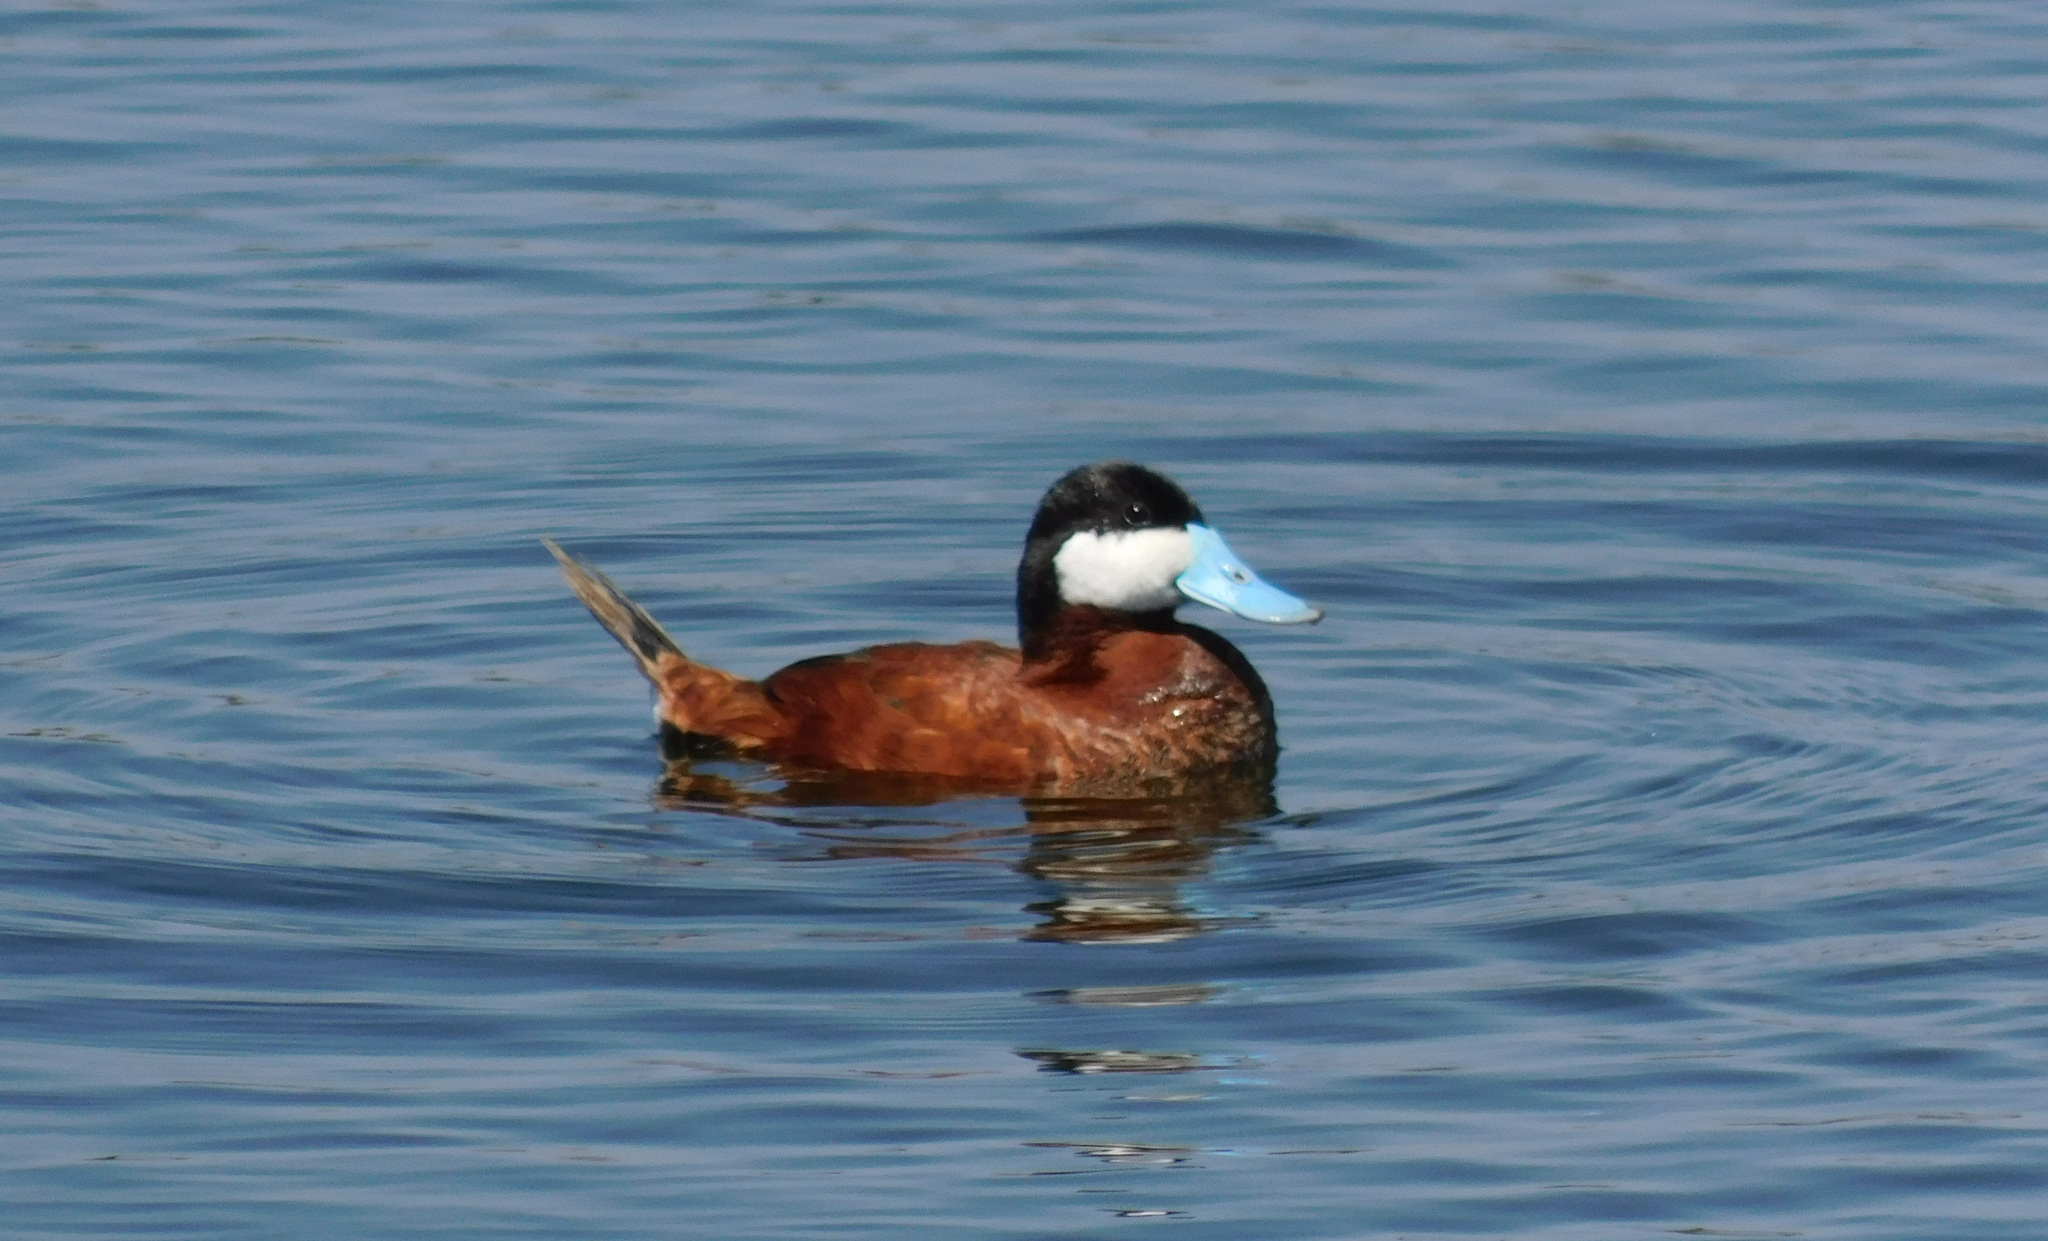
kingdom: Animalia
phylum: Chordata
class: Aves
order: Anseriformes
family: Anatidae
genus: Oxyura
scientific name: Oxyura jamaicensis
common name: Ruddy duck
